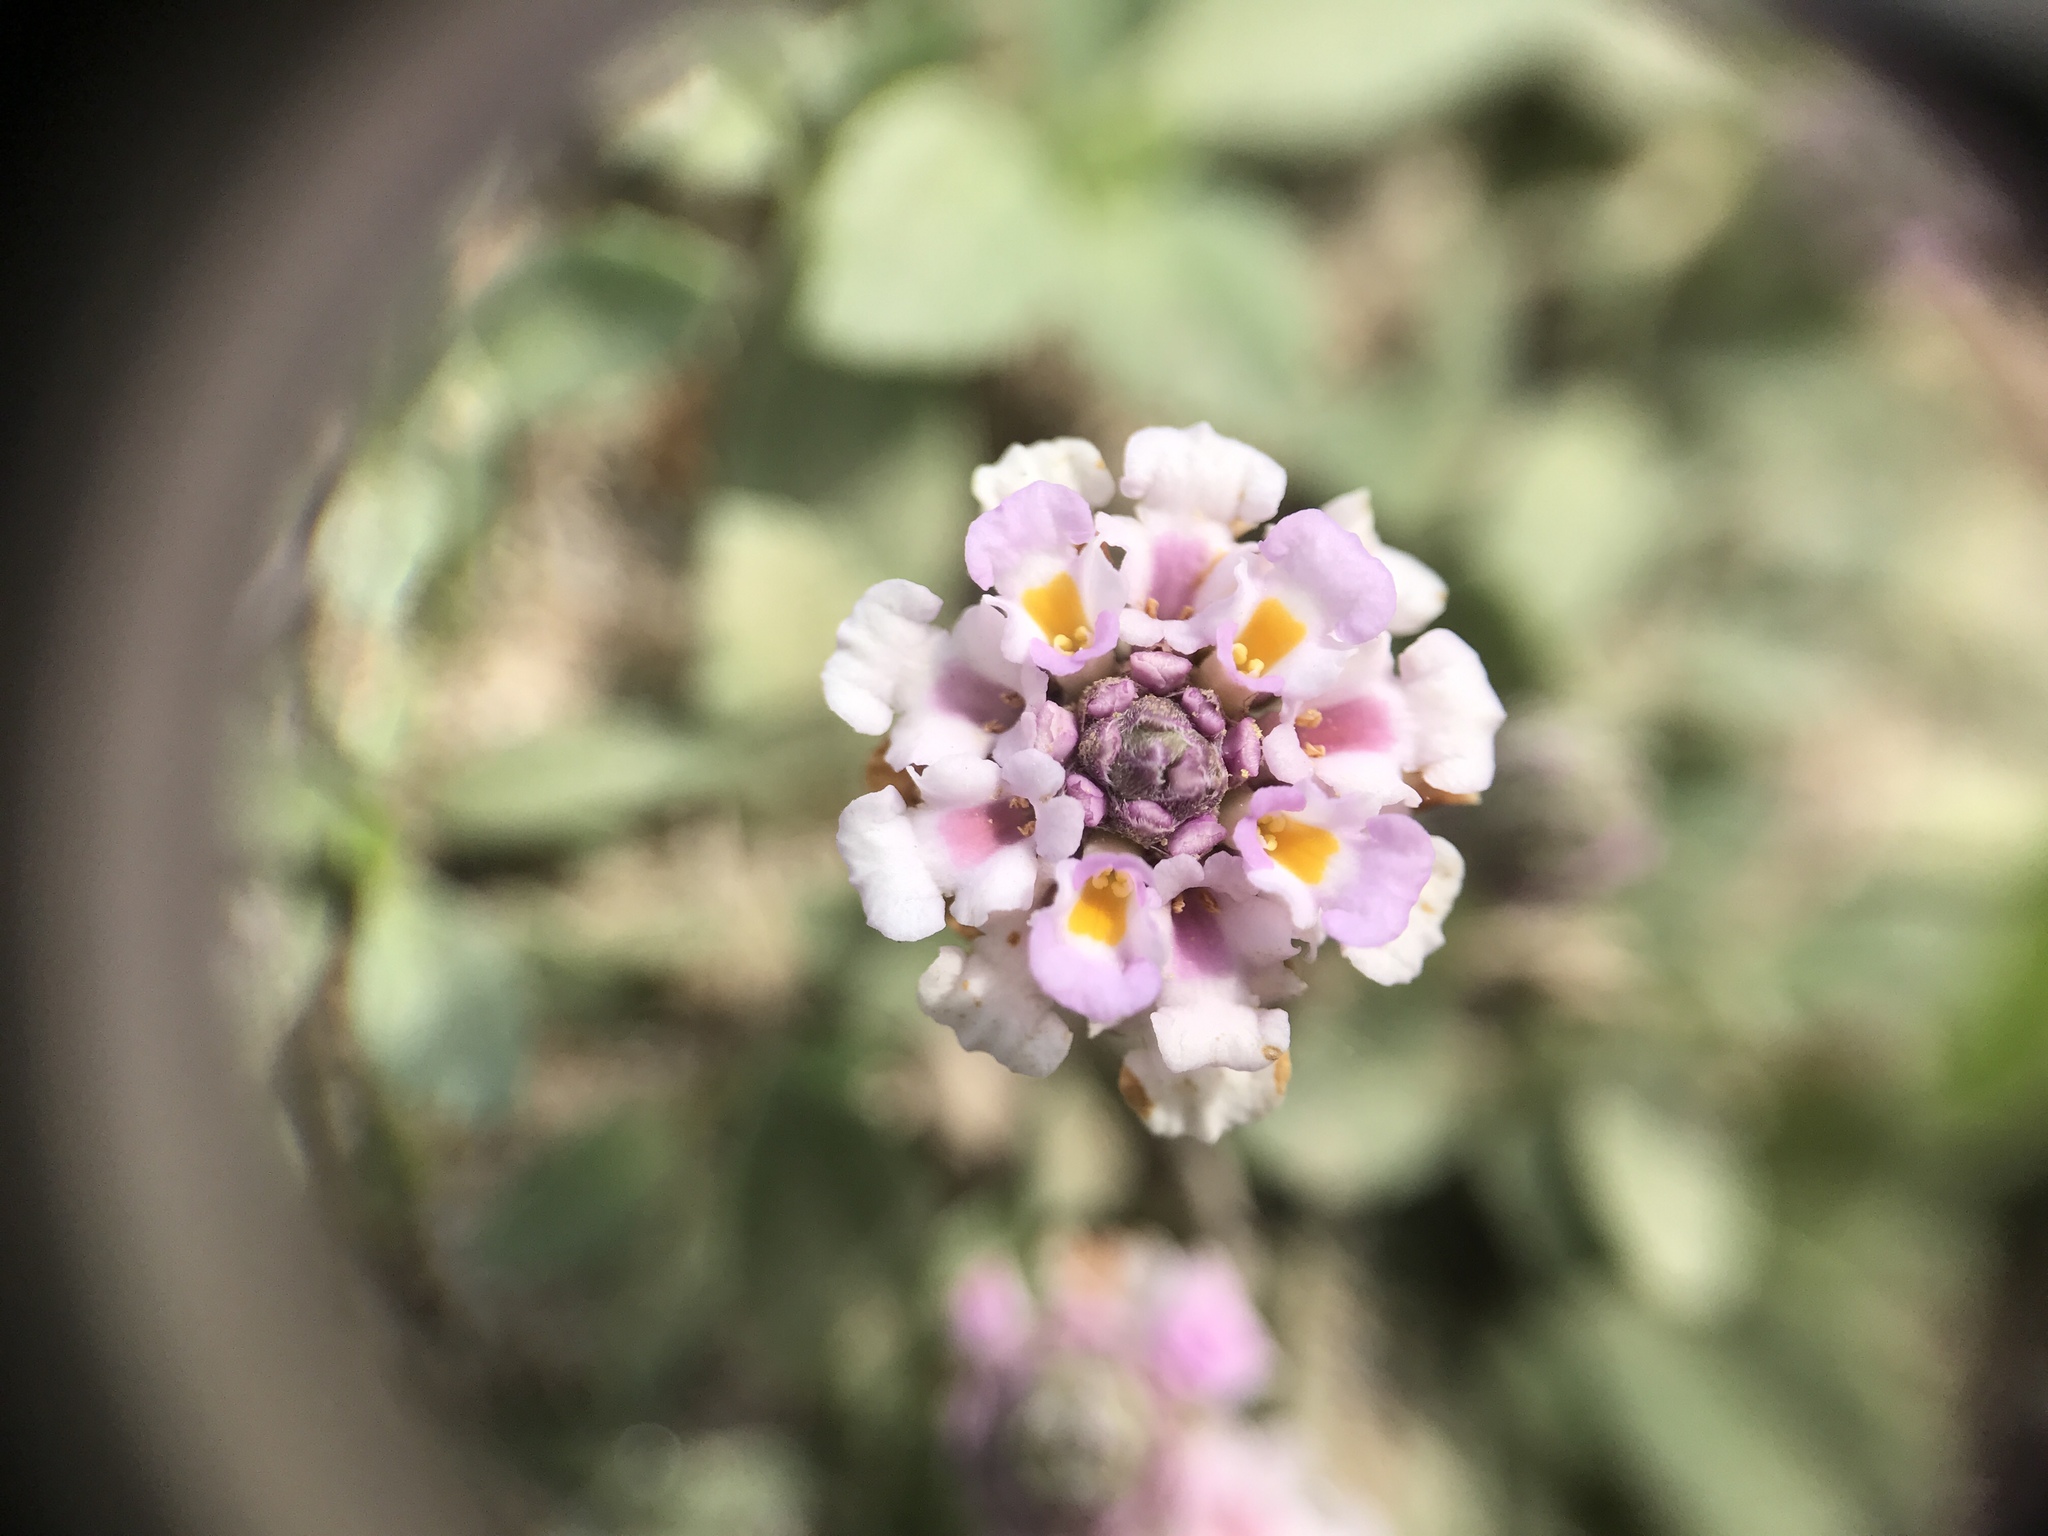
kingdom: Plantae
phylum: Tracheophyta
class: Magnoliopsida
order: Lamiales
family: Verbenaceae
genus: Phyla
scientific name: Phyla nodiflora
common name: Frogfruit
